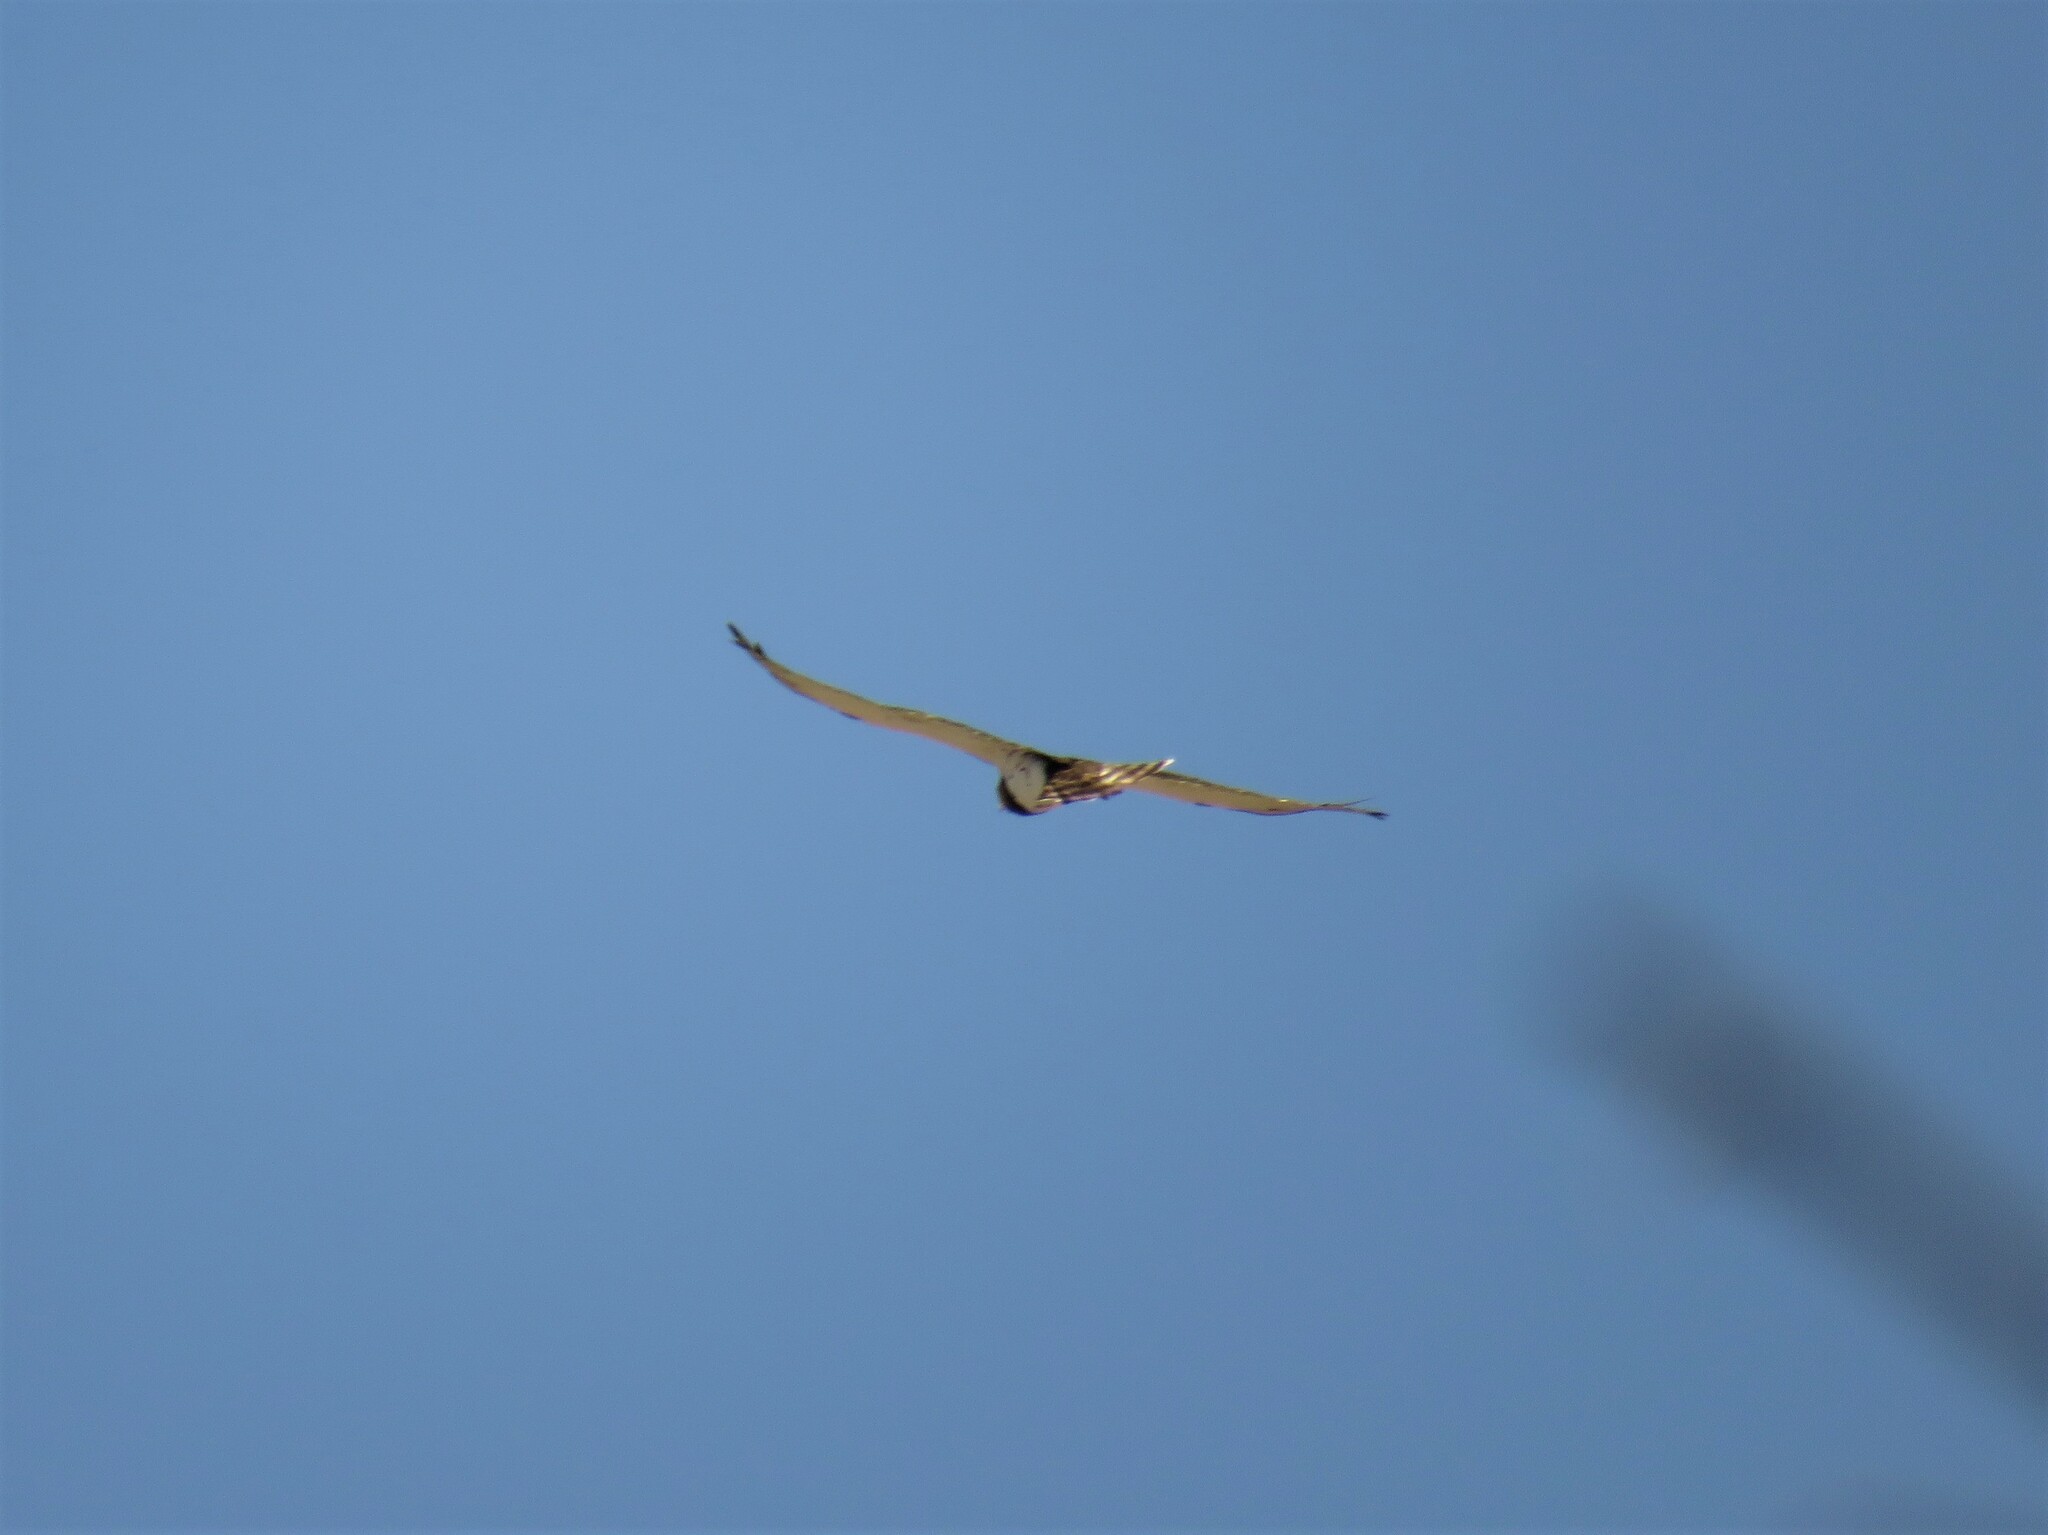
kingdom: Animalia
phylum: Chordata
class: Aves
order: Accipitriformes
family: Accipitridae
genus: Circaetus
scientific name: Circaetus pectoralis
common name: Black-chested snake eagle
